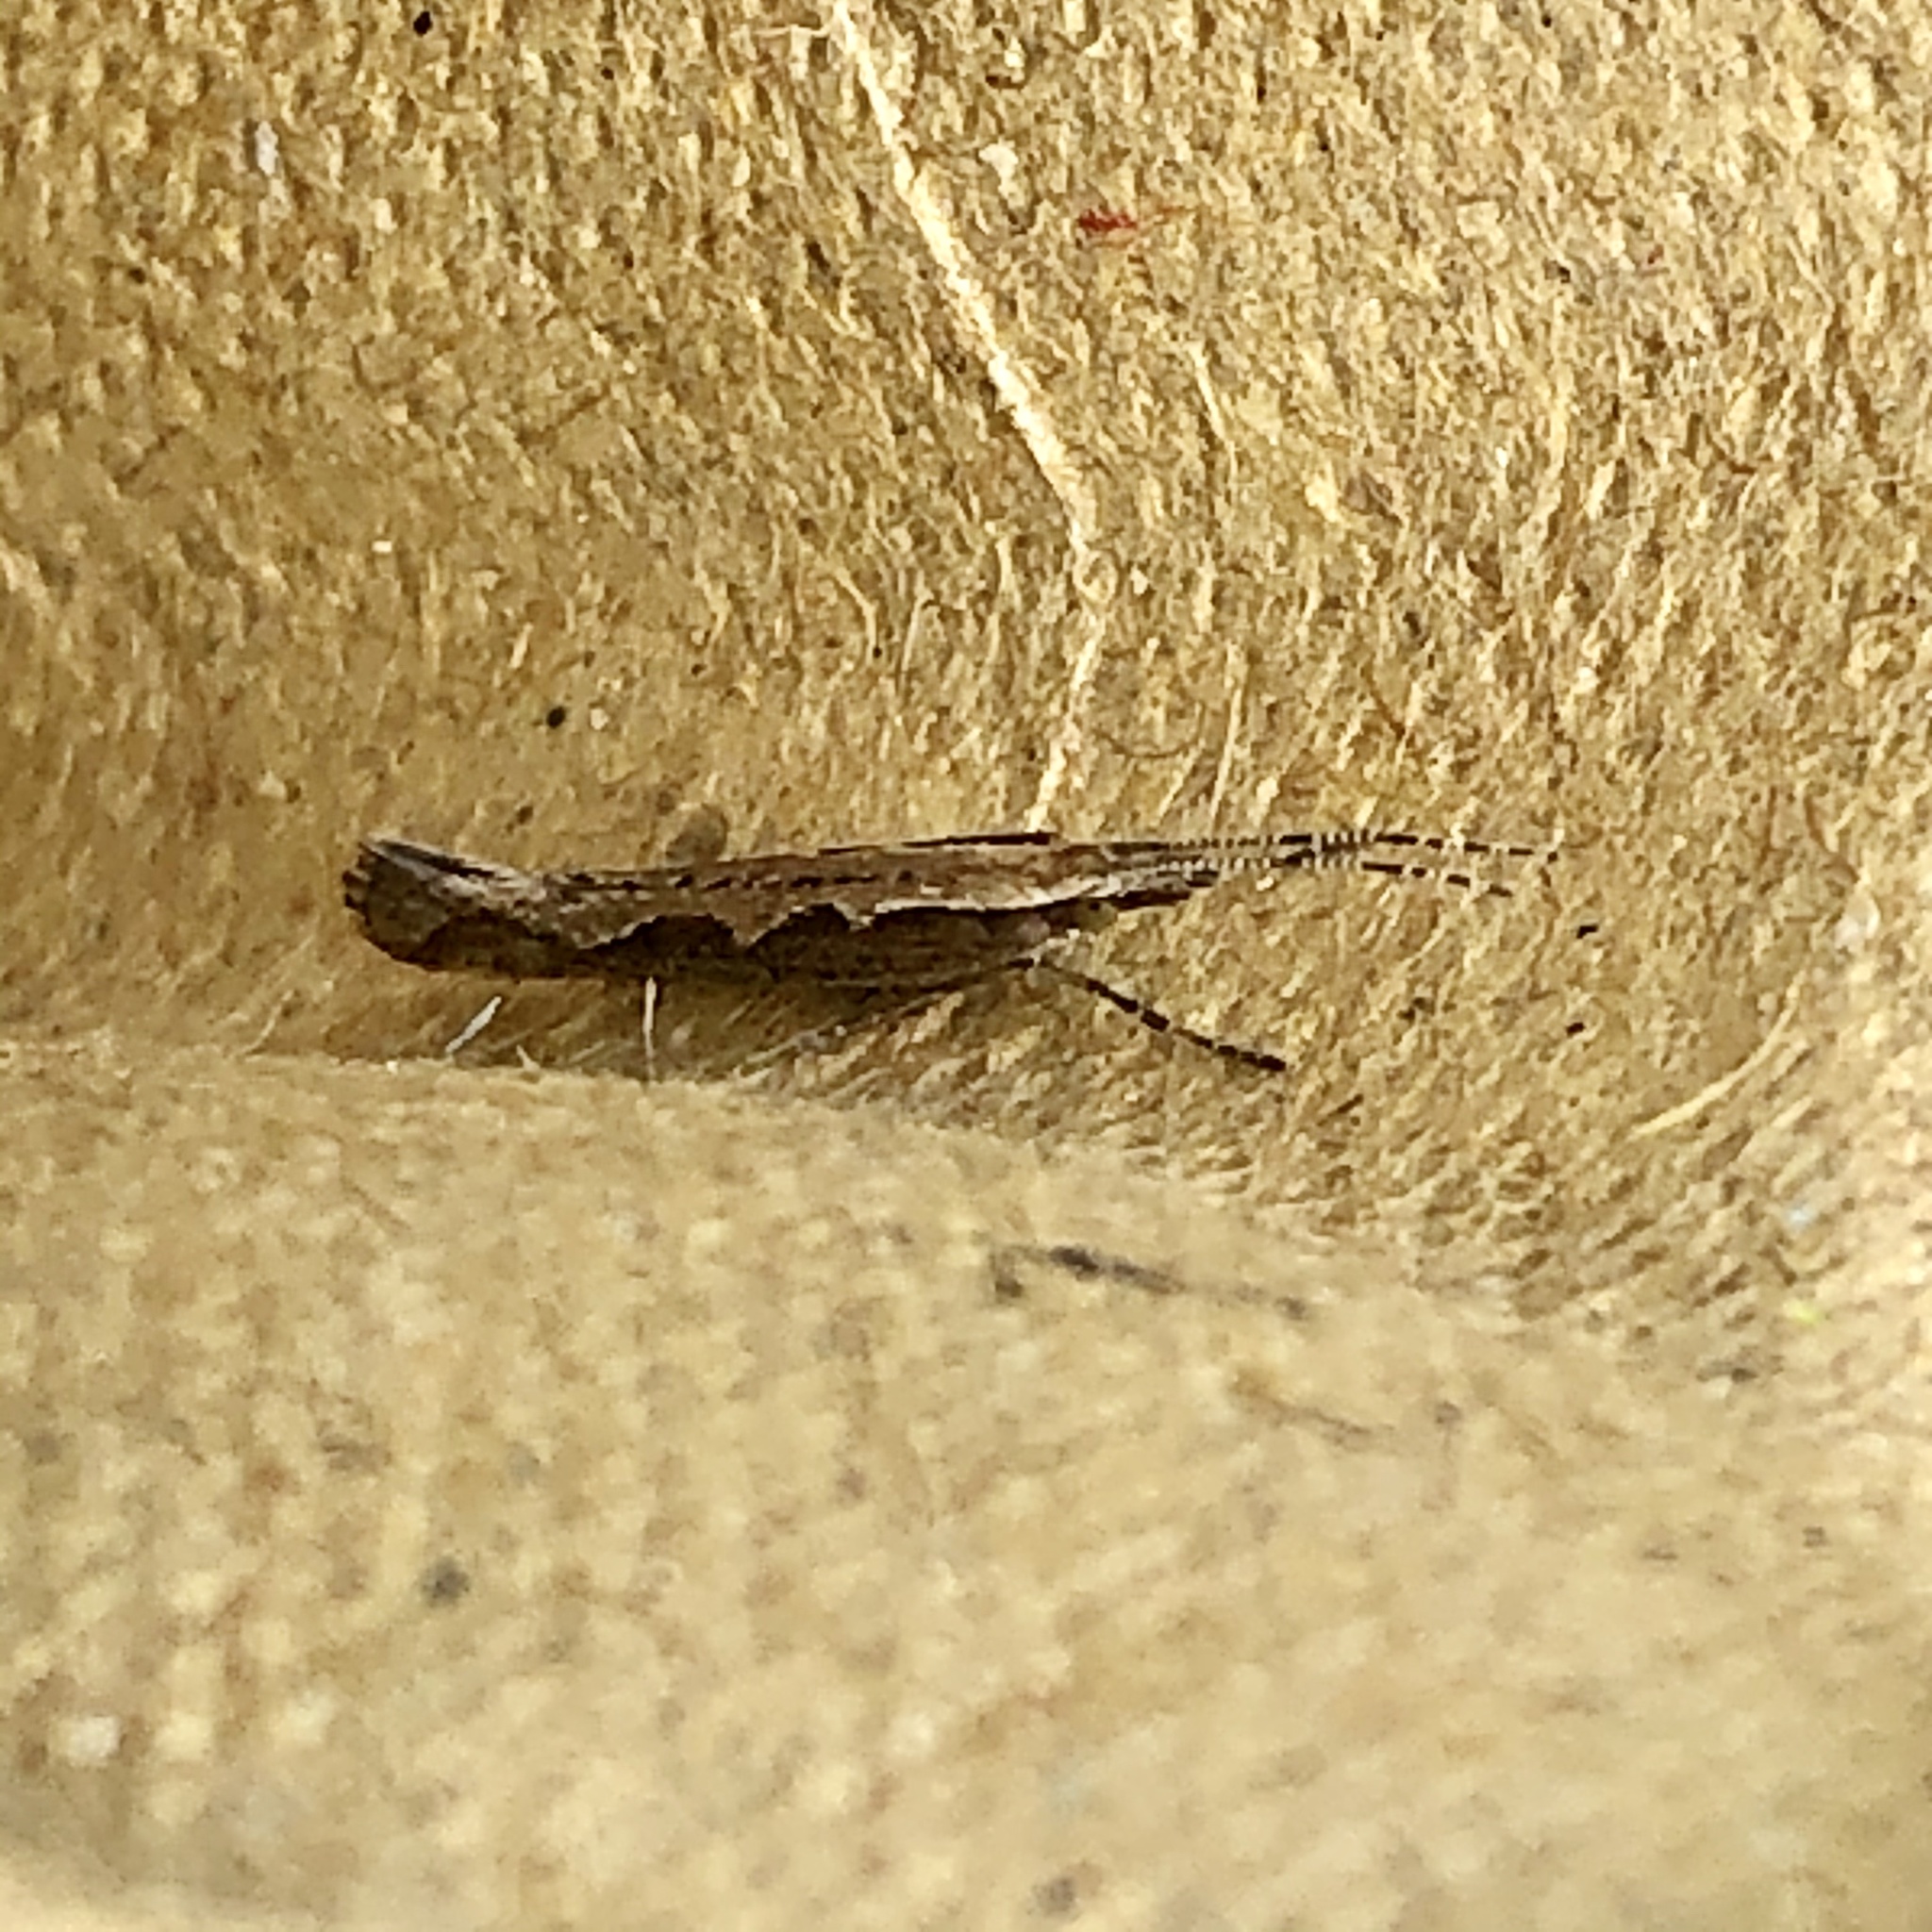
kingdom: Animalia
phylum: Arthropoda
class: Insecta
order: Lepidoptera
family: Plutellidae
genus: Plutella
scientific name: Plutella xylostella
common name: Diamond-back moth
